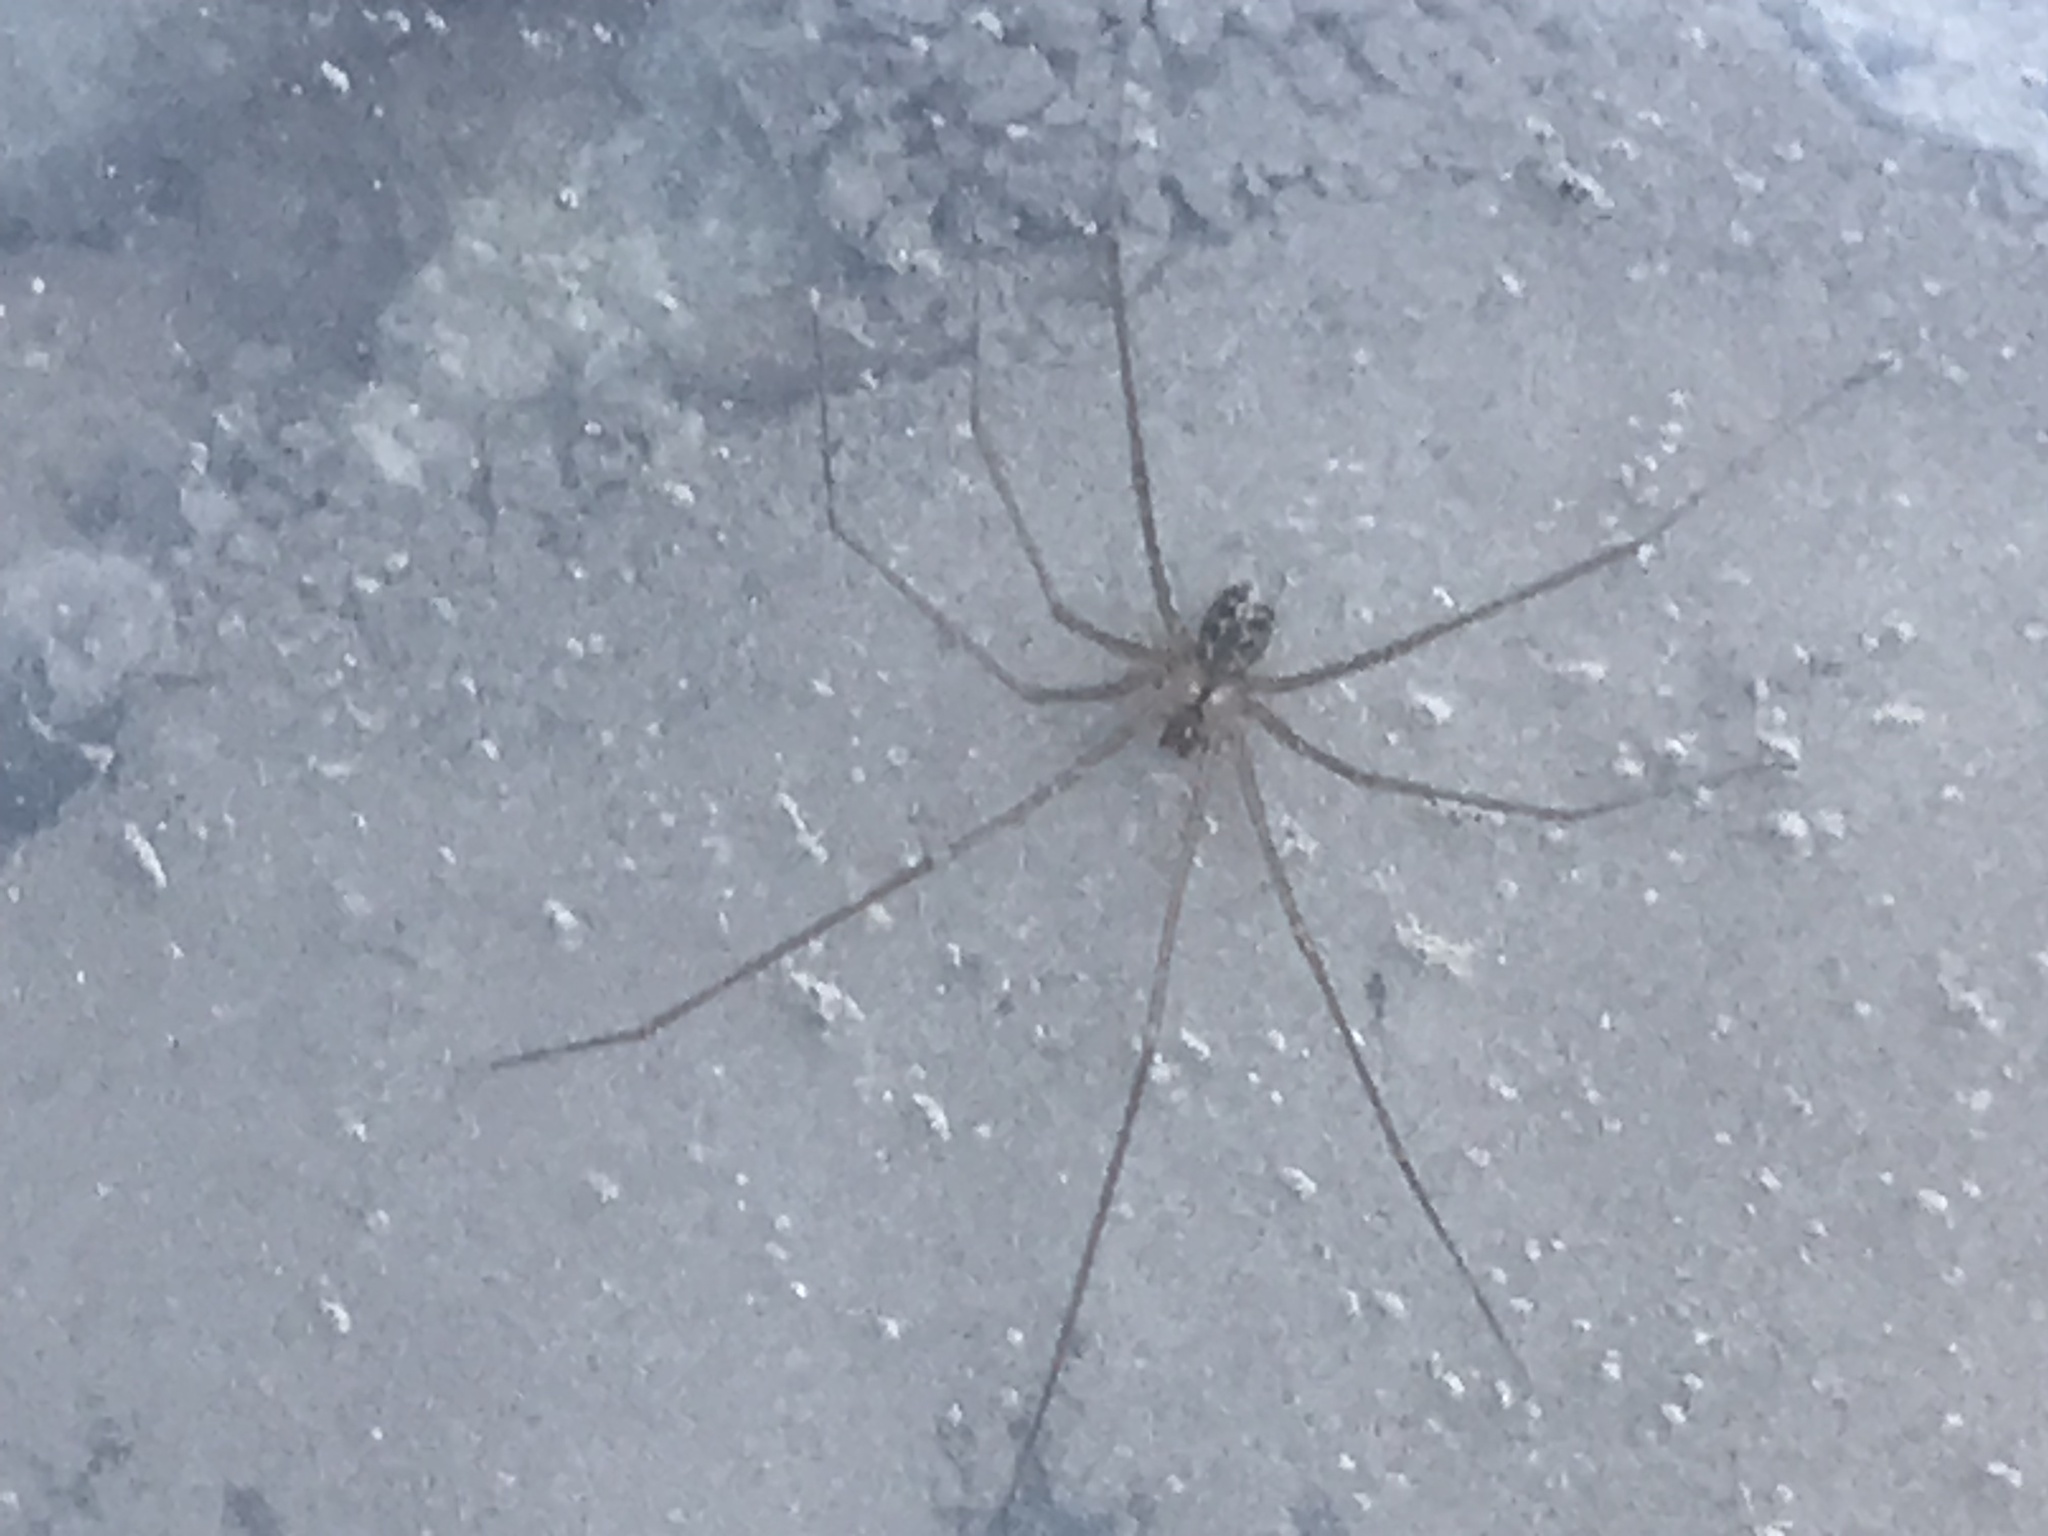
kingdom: Animalia
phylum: Arthropoda
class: Arachnida
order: Araneae
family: Pholcidae
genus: Psilochorus
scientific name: Psilochorus hesperus
